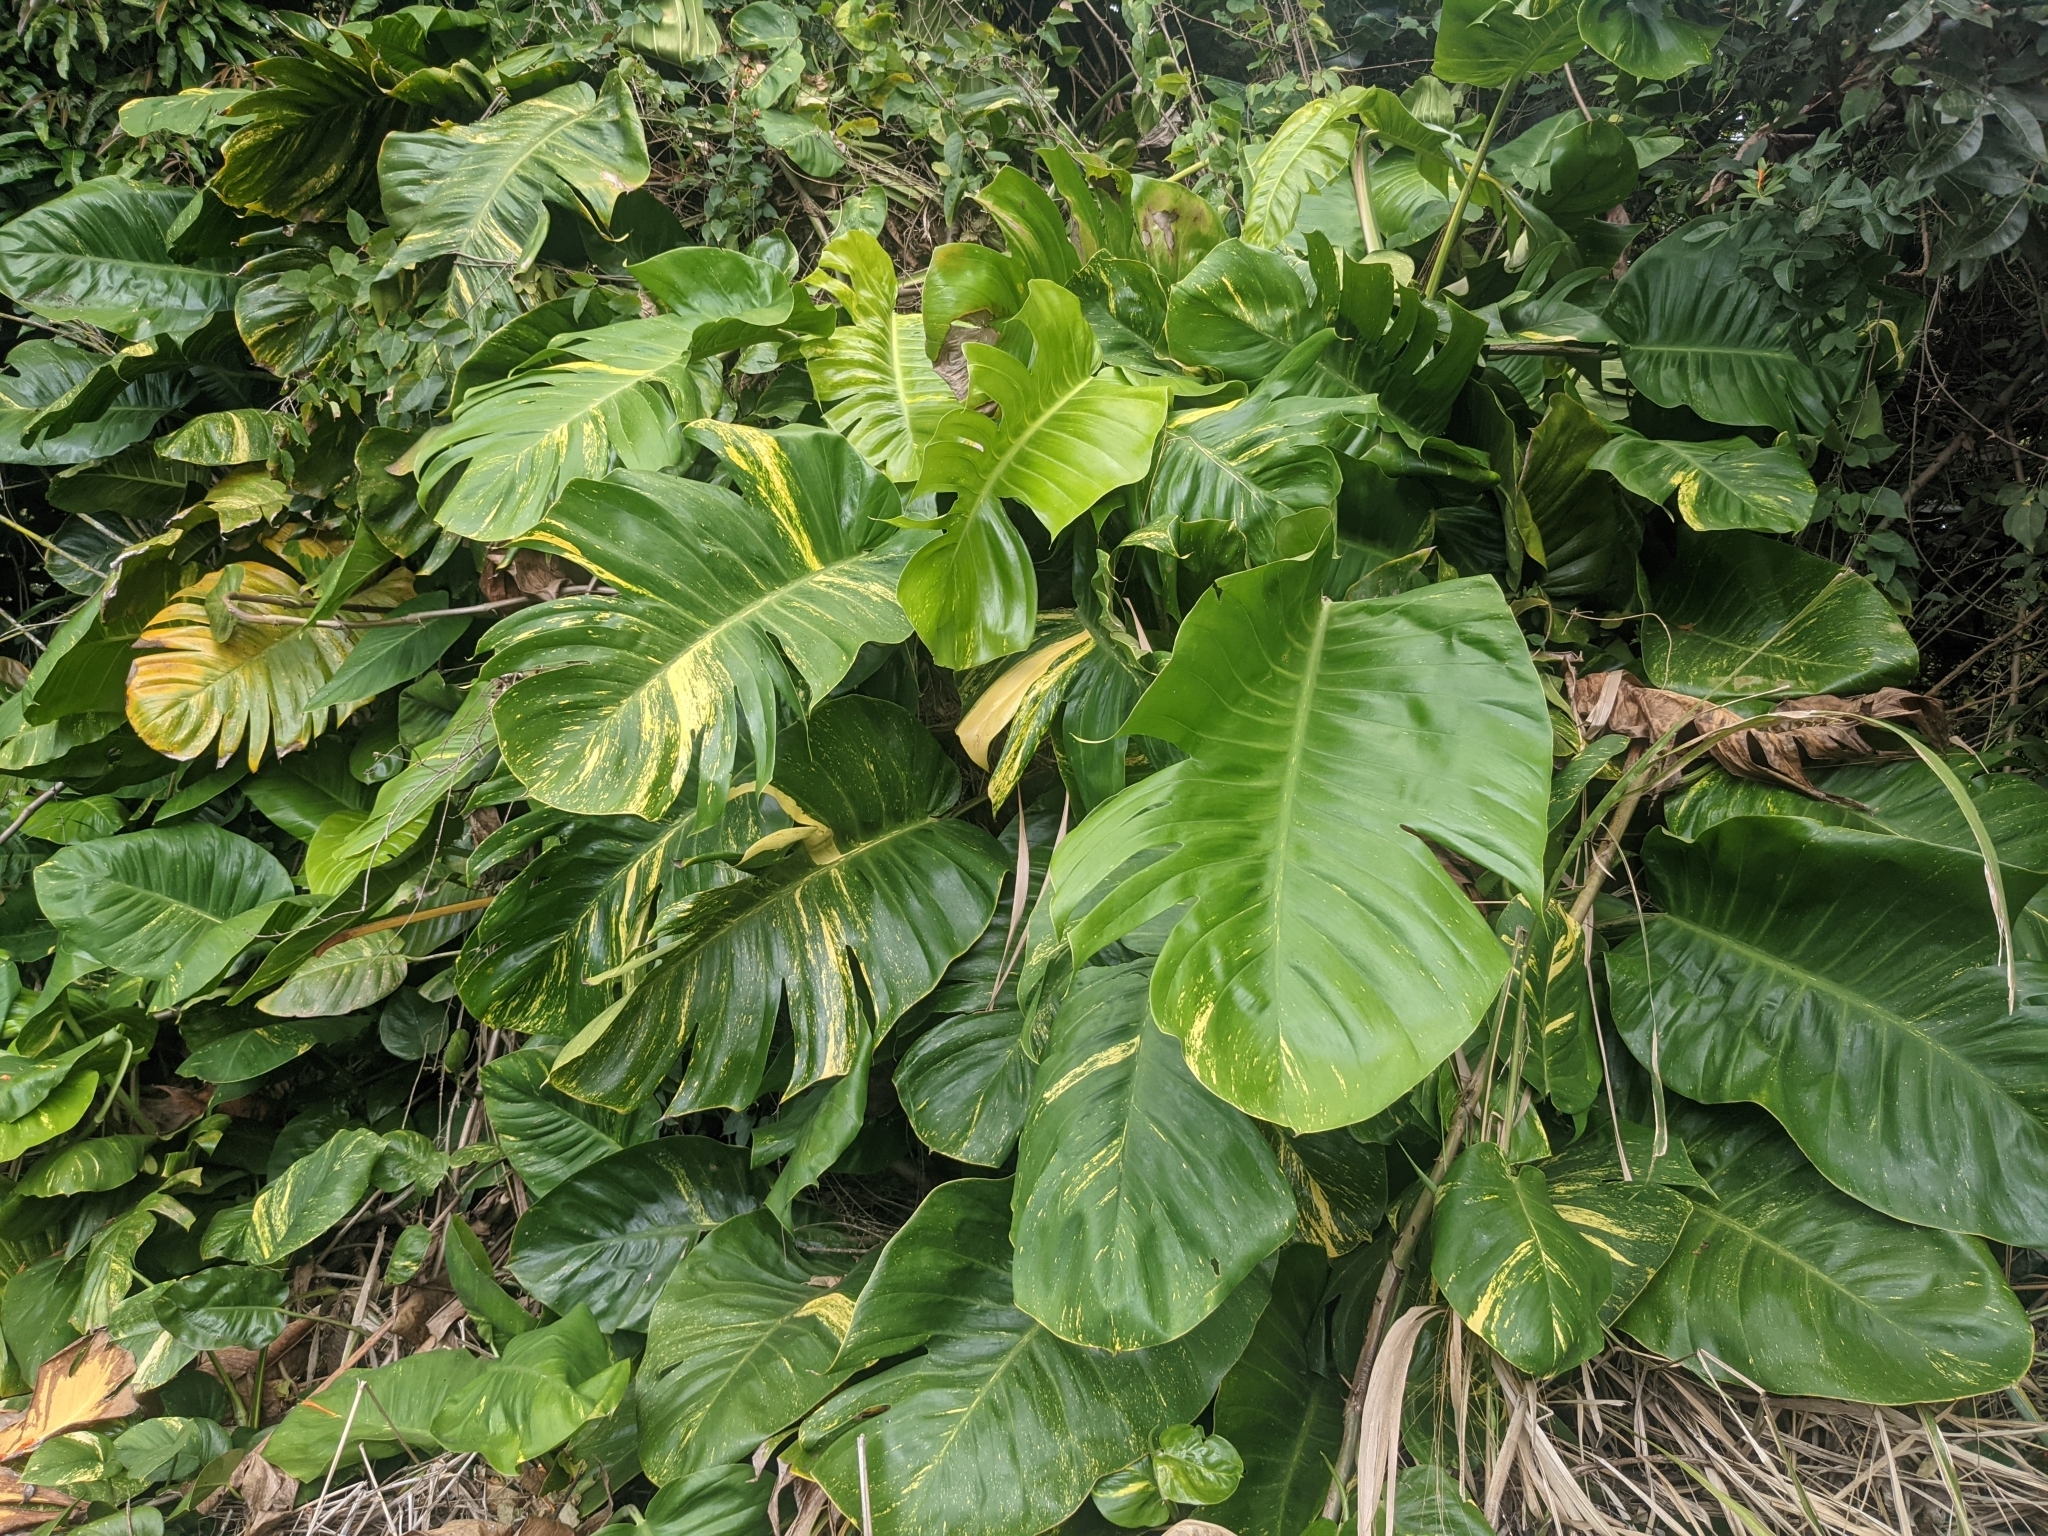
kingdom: Plantae
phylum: Tracheophyta
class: Liliopsida
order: Alismatales
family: Araceae
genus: Epipremnum
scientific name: Epipremnum aureum
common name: Golden hunter's-robe
